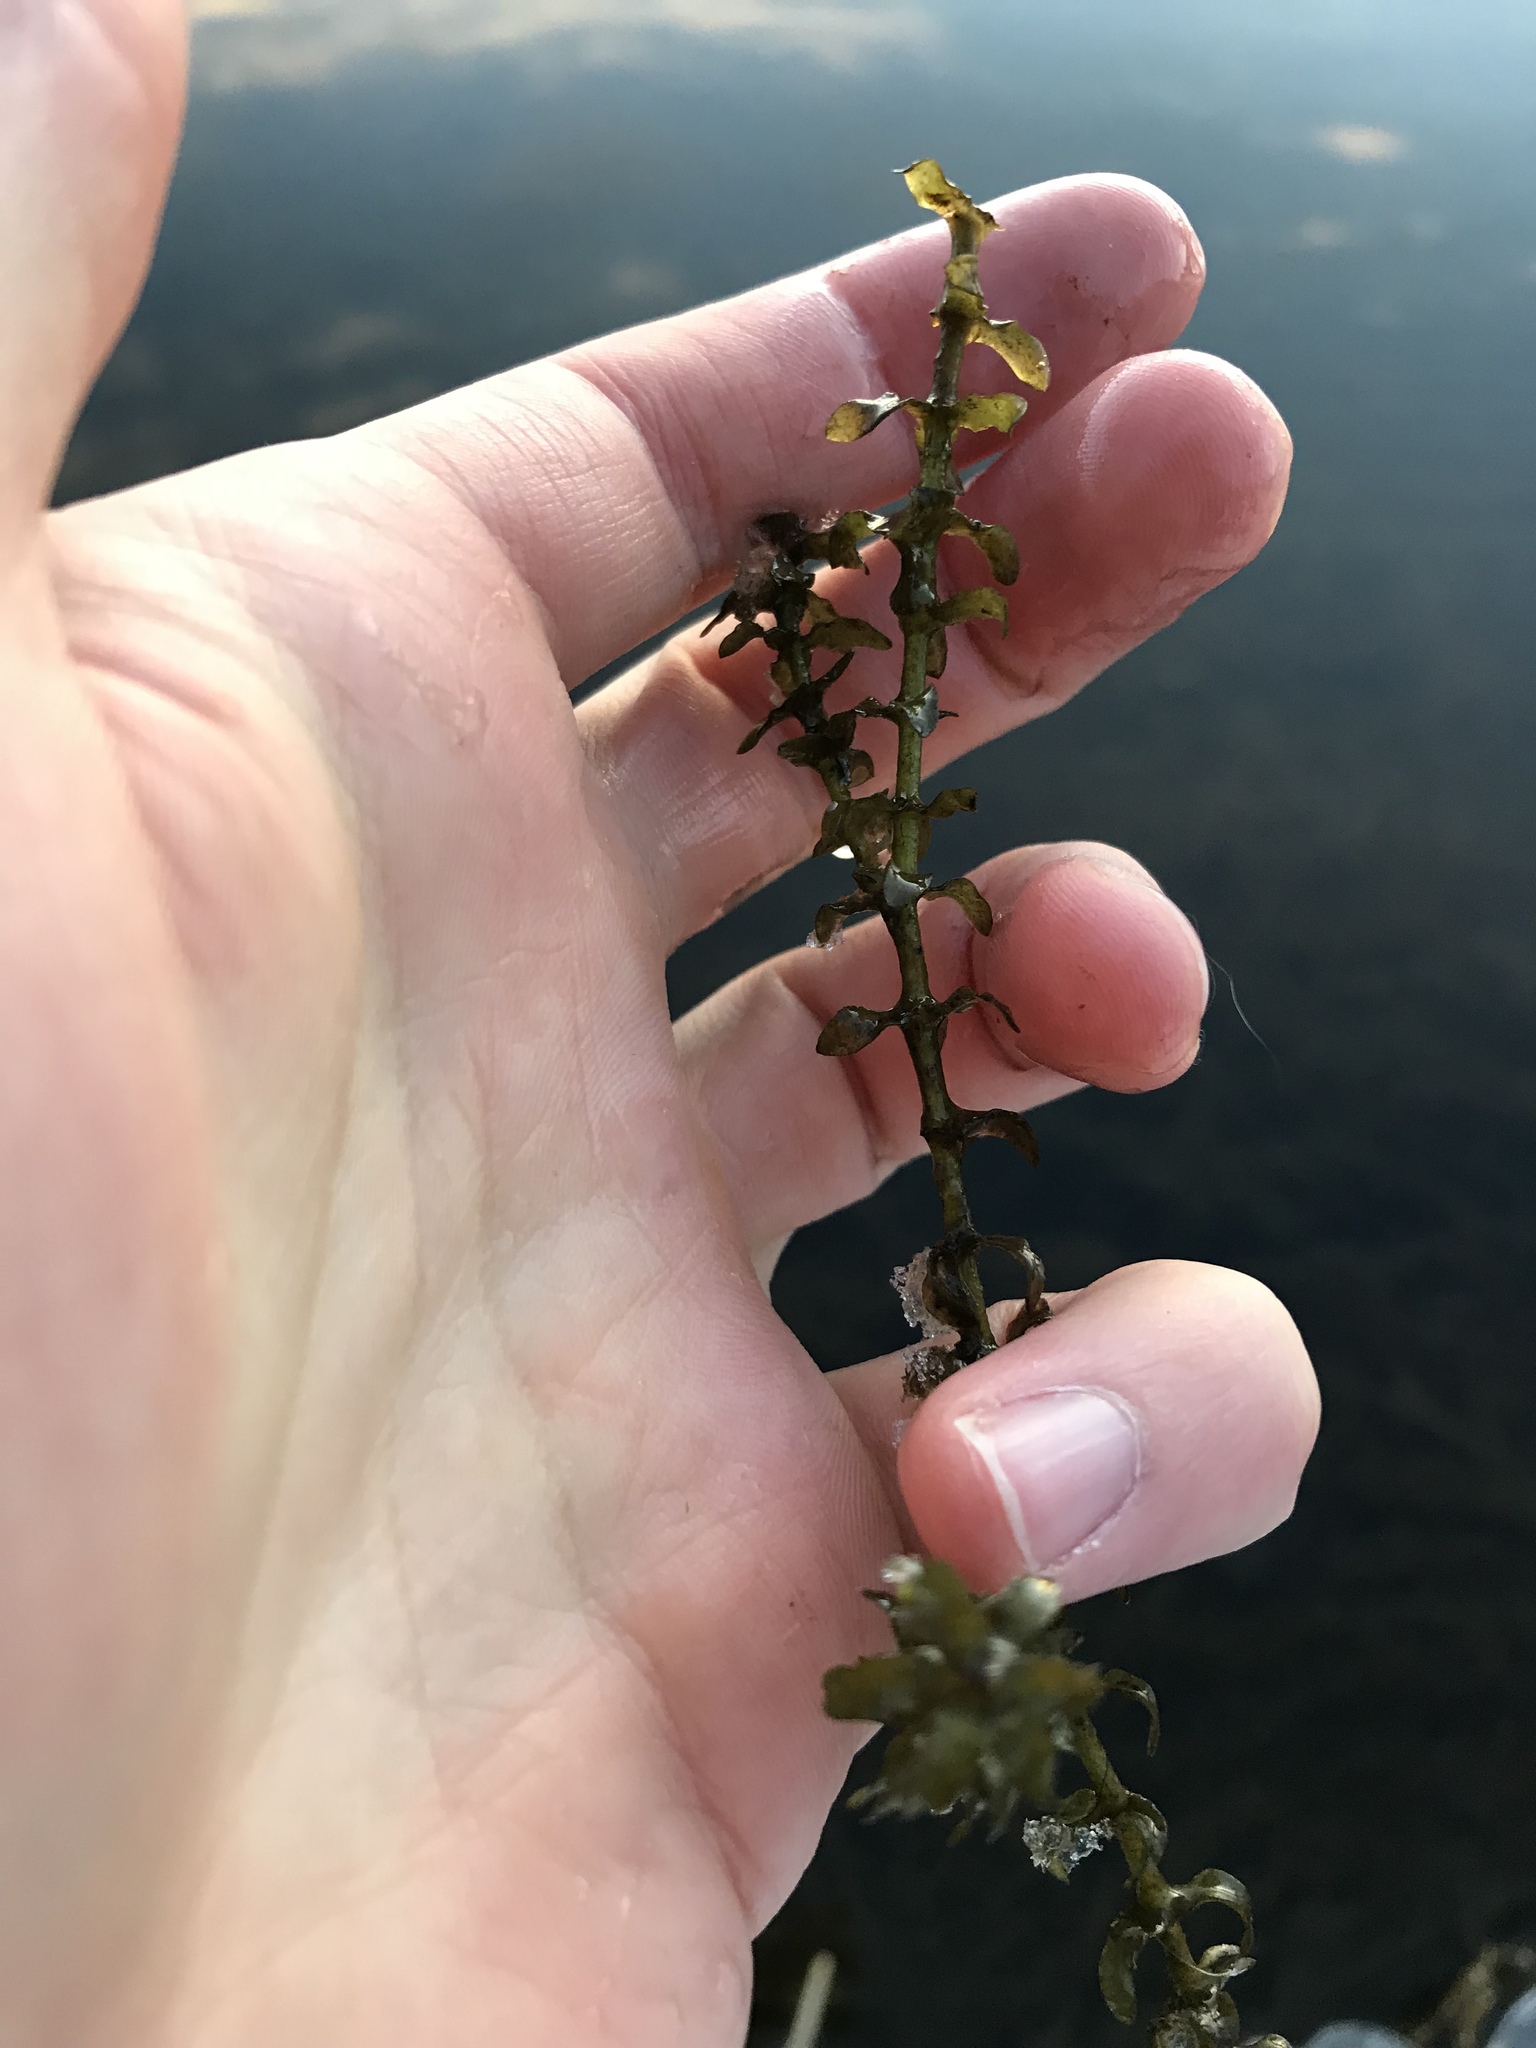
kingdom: Plantae
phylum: Tracheophyta
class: Liliopsida
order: Alismatales
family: Hydrocharitaceae
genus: Elodea
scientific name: Elodea canadensis
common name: Canadian waterweed
